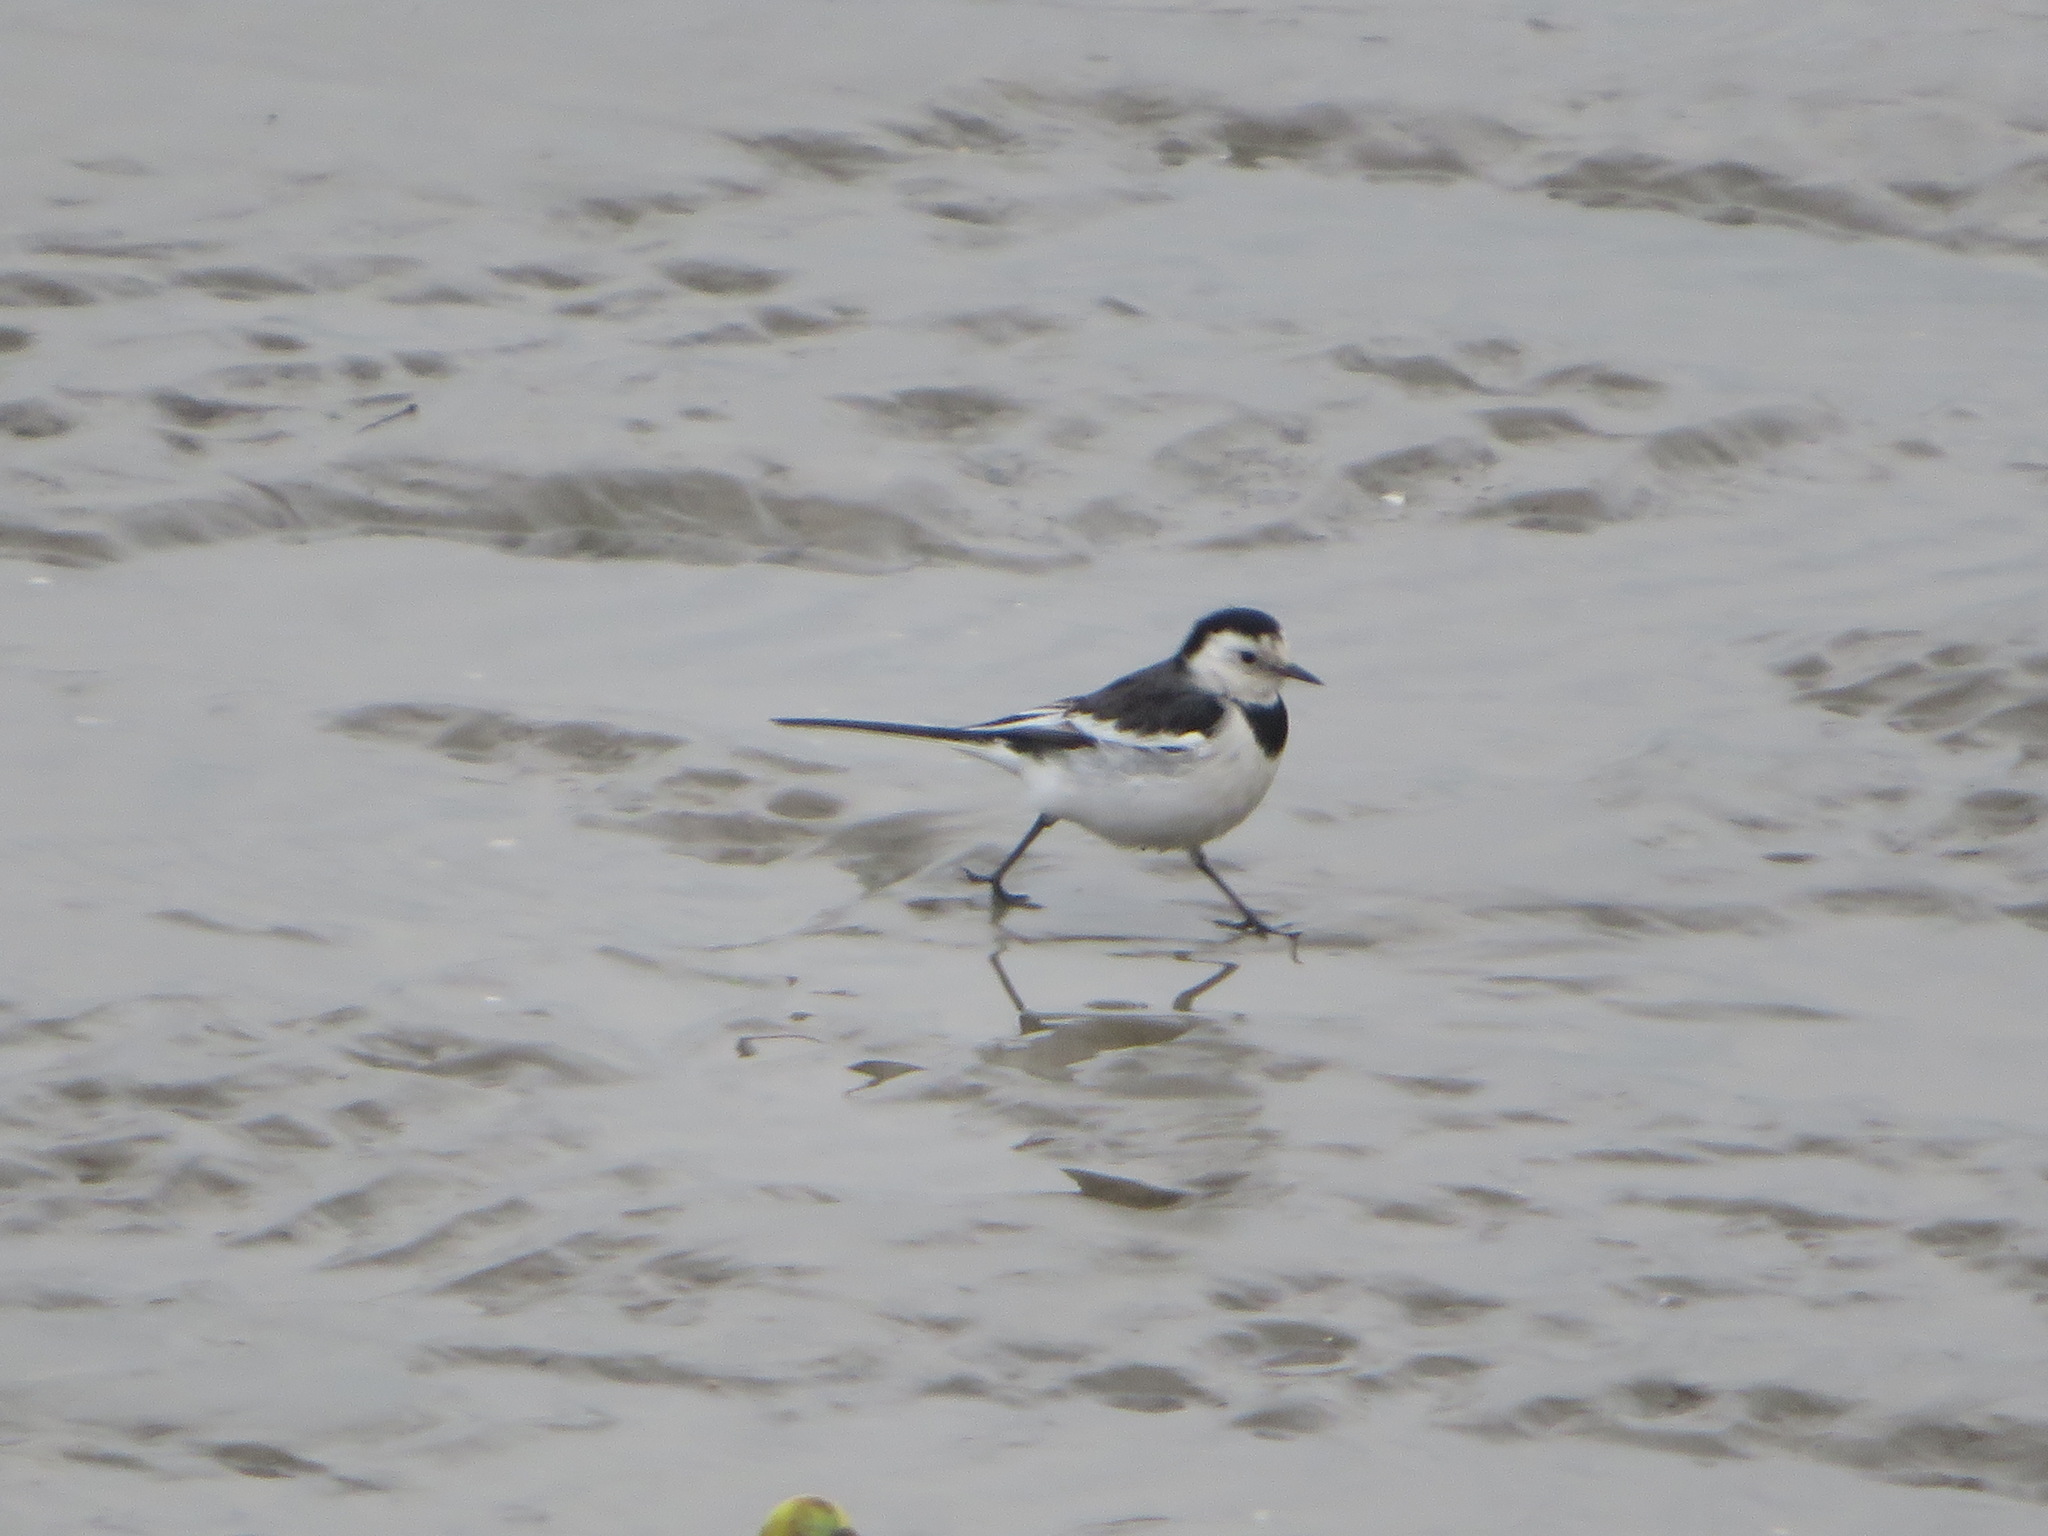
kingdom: Animalia
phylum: Chordata
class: Aves
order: Passeriformes
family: Motacillidae
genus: Motacilla
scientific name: Motacilla alba
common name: White wagtail
